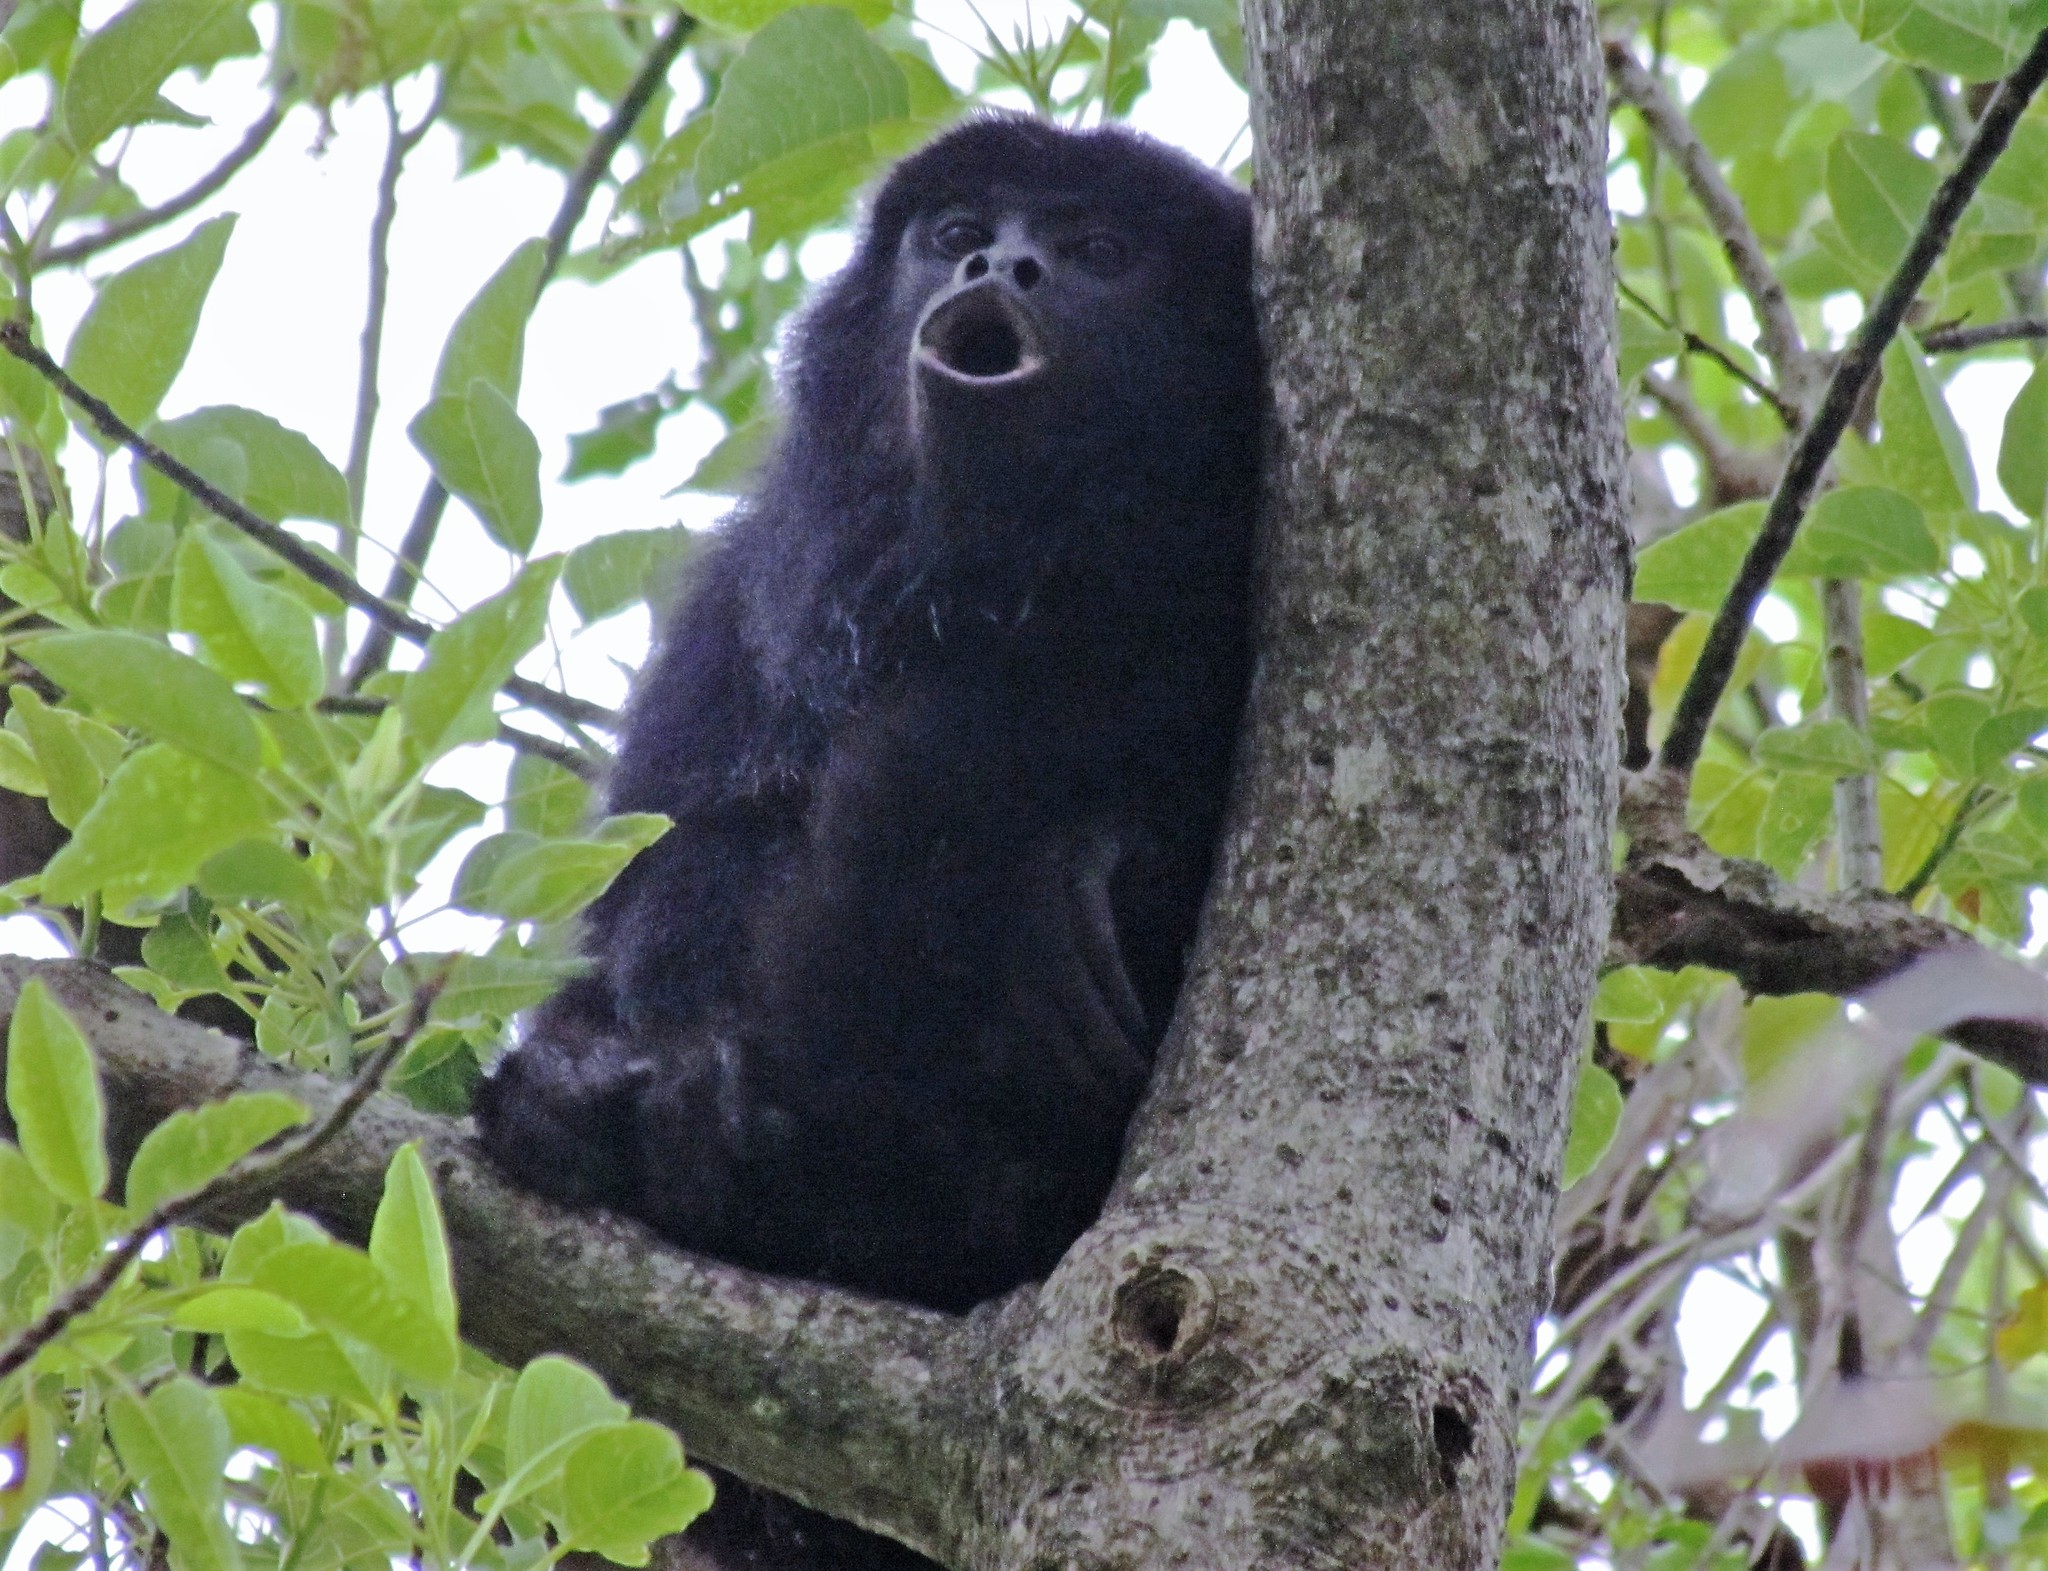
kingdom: Animalia
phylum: Chordata
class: Mammalia
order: Primates
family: Atelidae
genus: Alouatta
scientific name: Alouatta caraya
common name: Black howler
